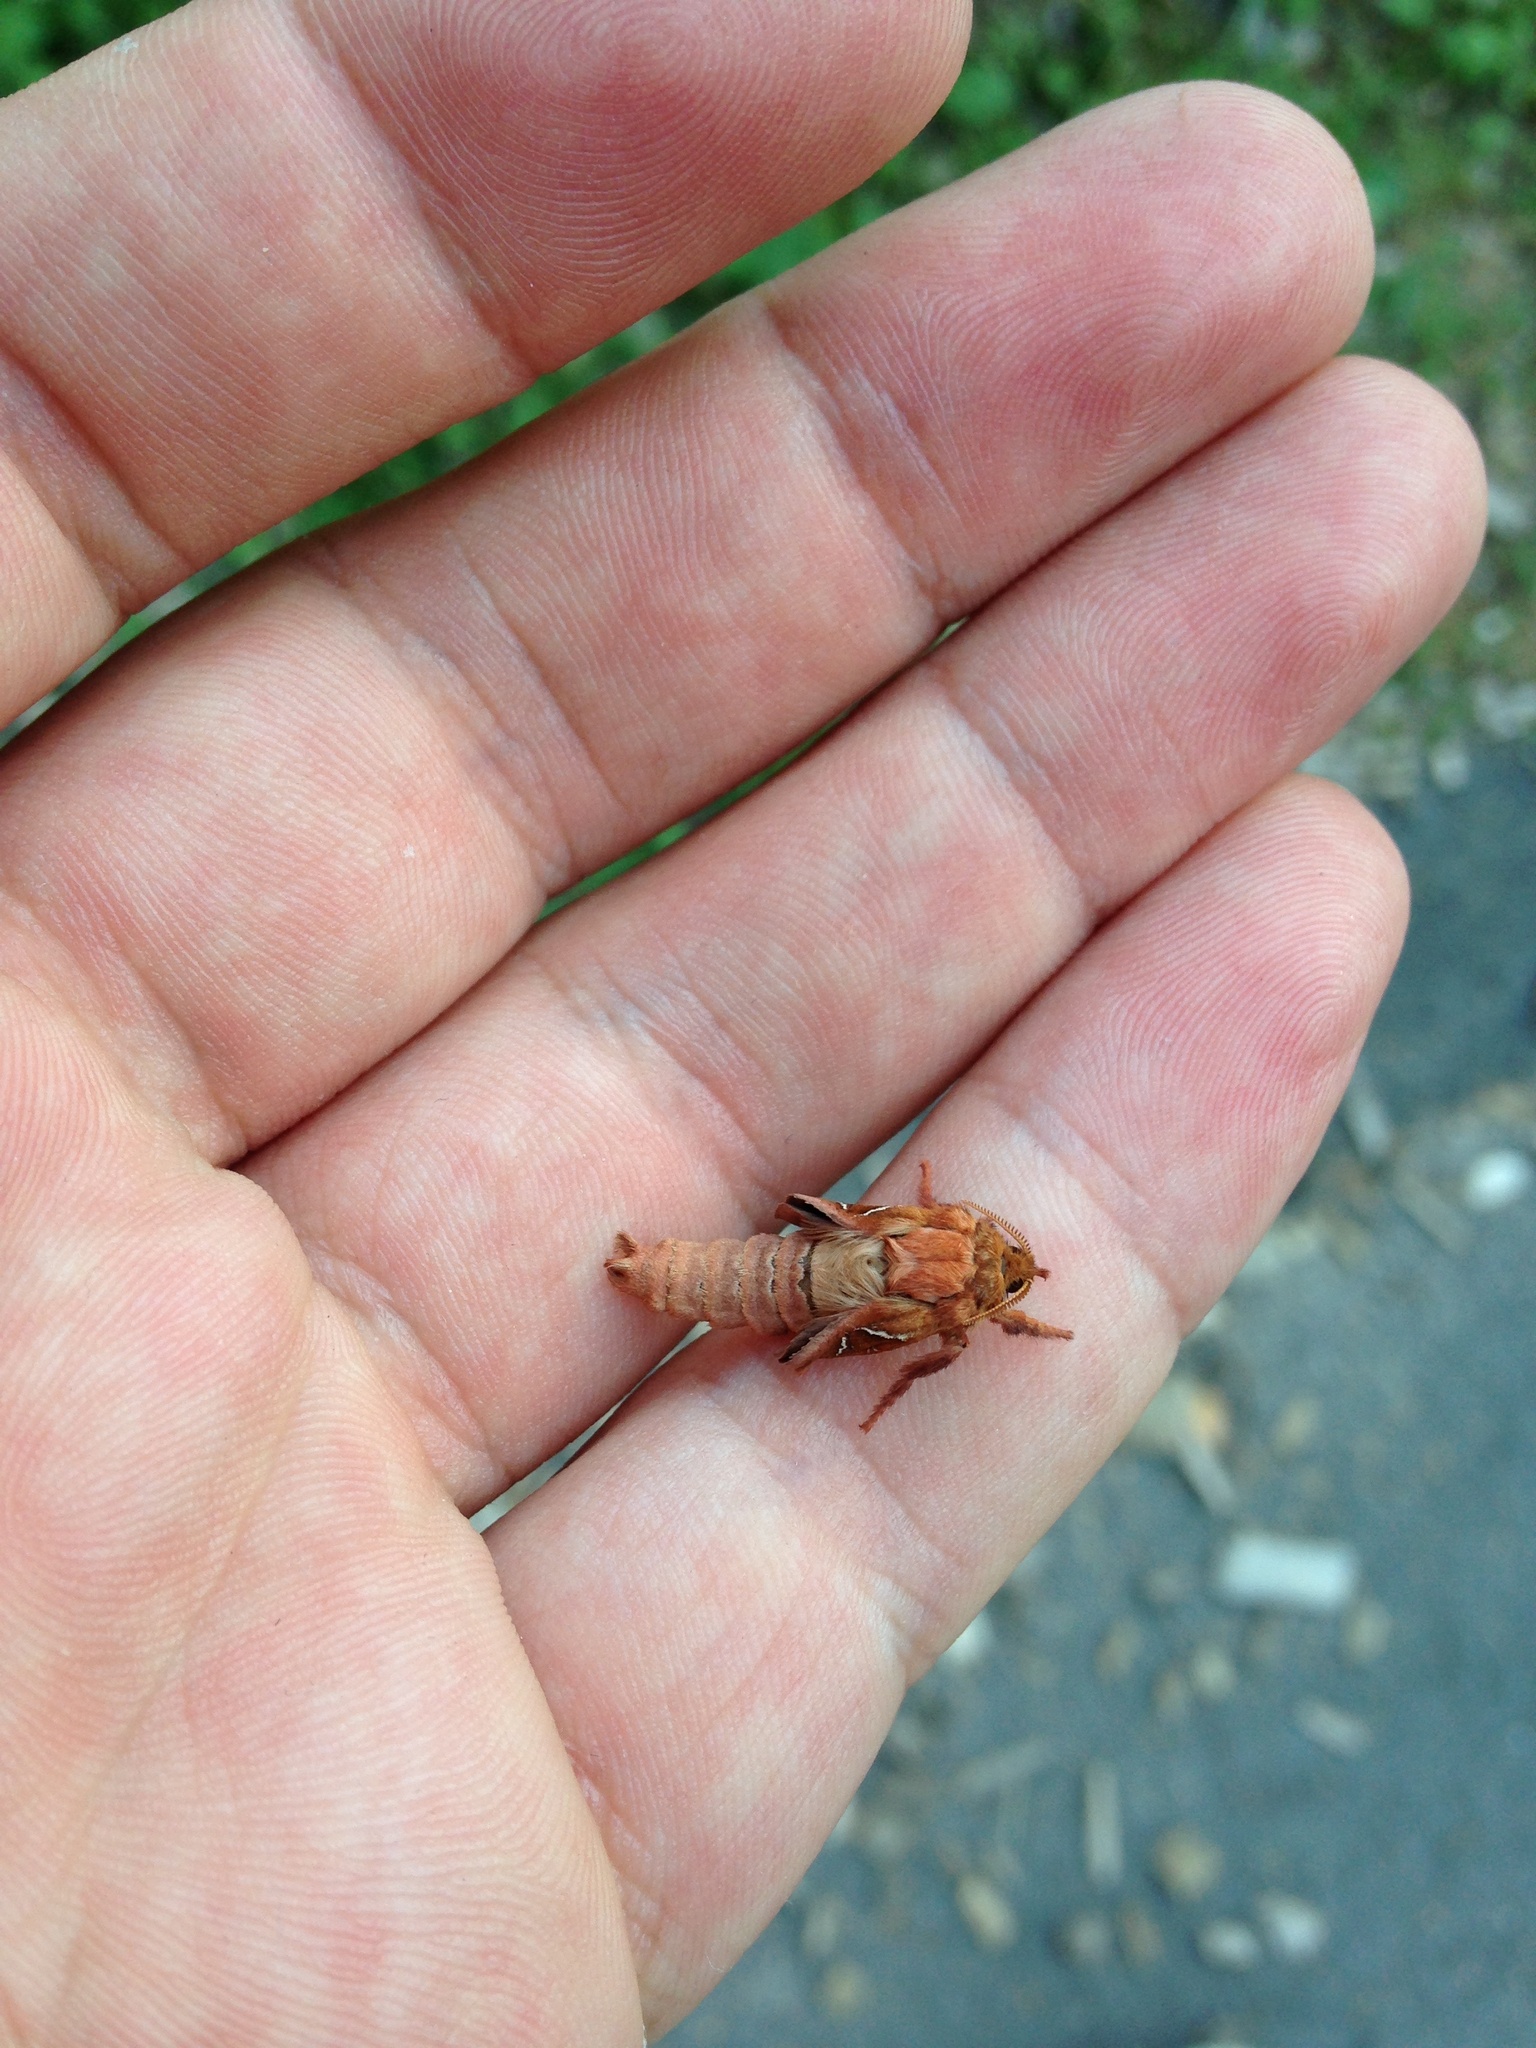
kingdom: Animalia
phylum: Arthropoda
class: Insecta
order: Lepidoptera
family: Hepialidae
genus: Triodia
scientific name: Triodia sylvina
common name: Orange swift
